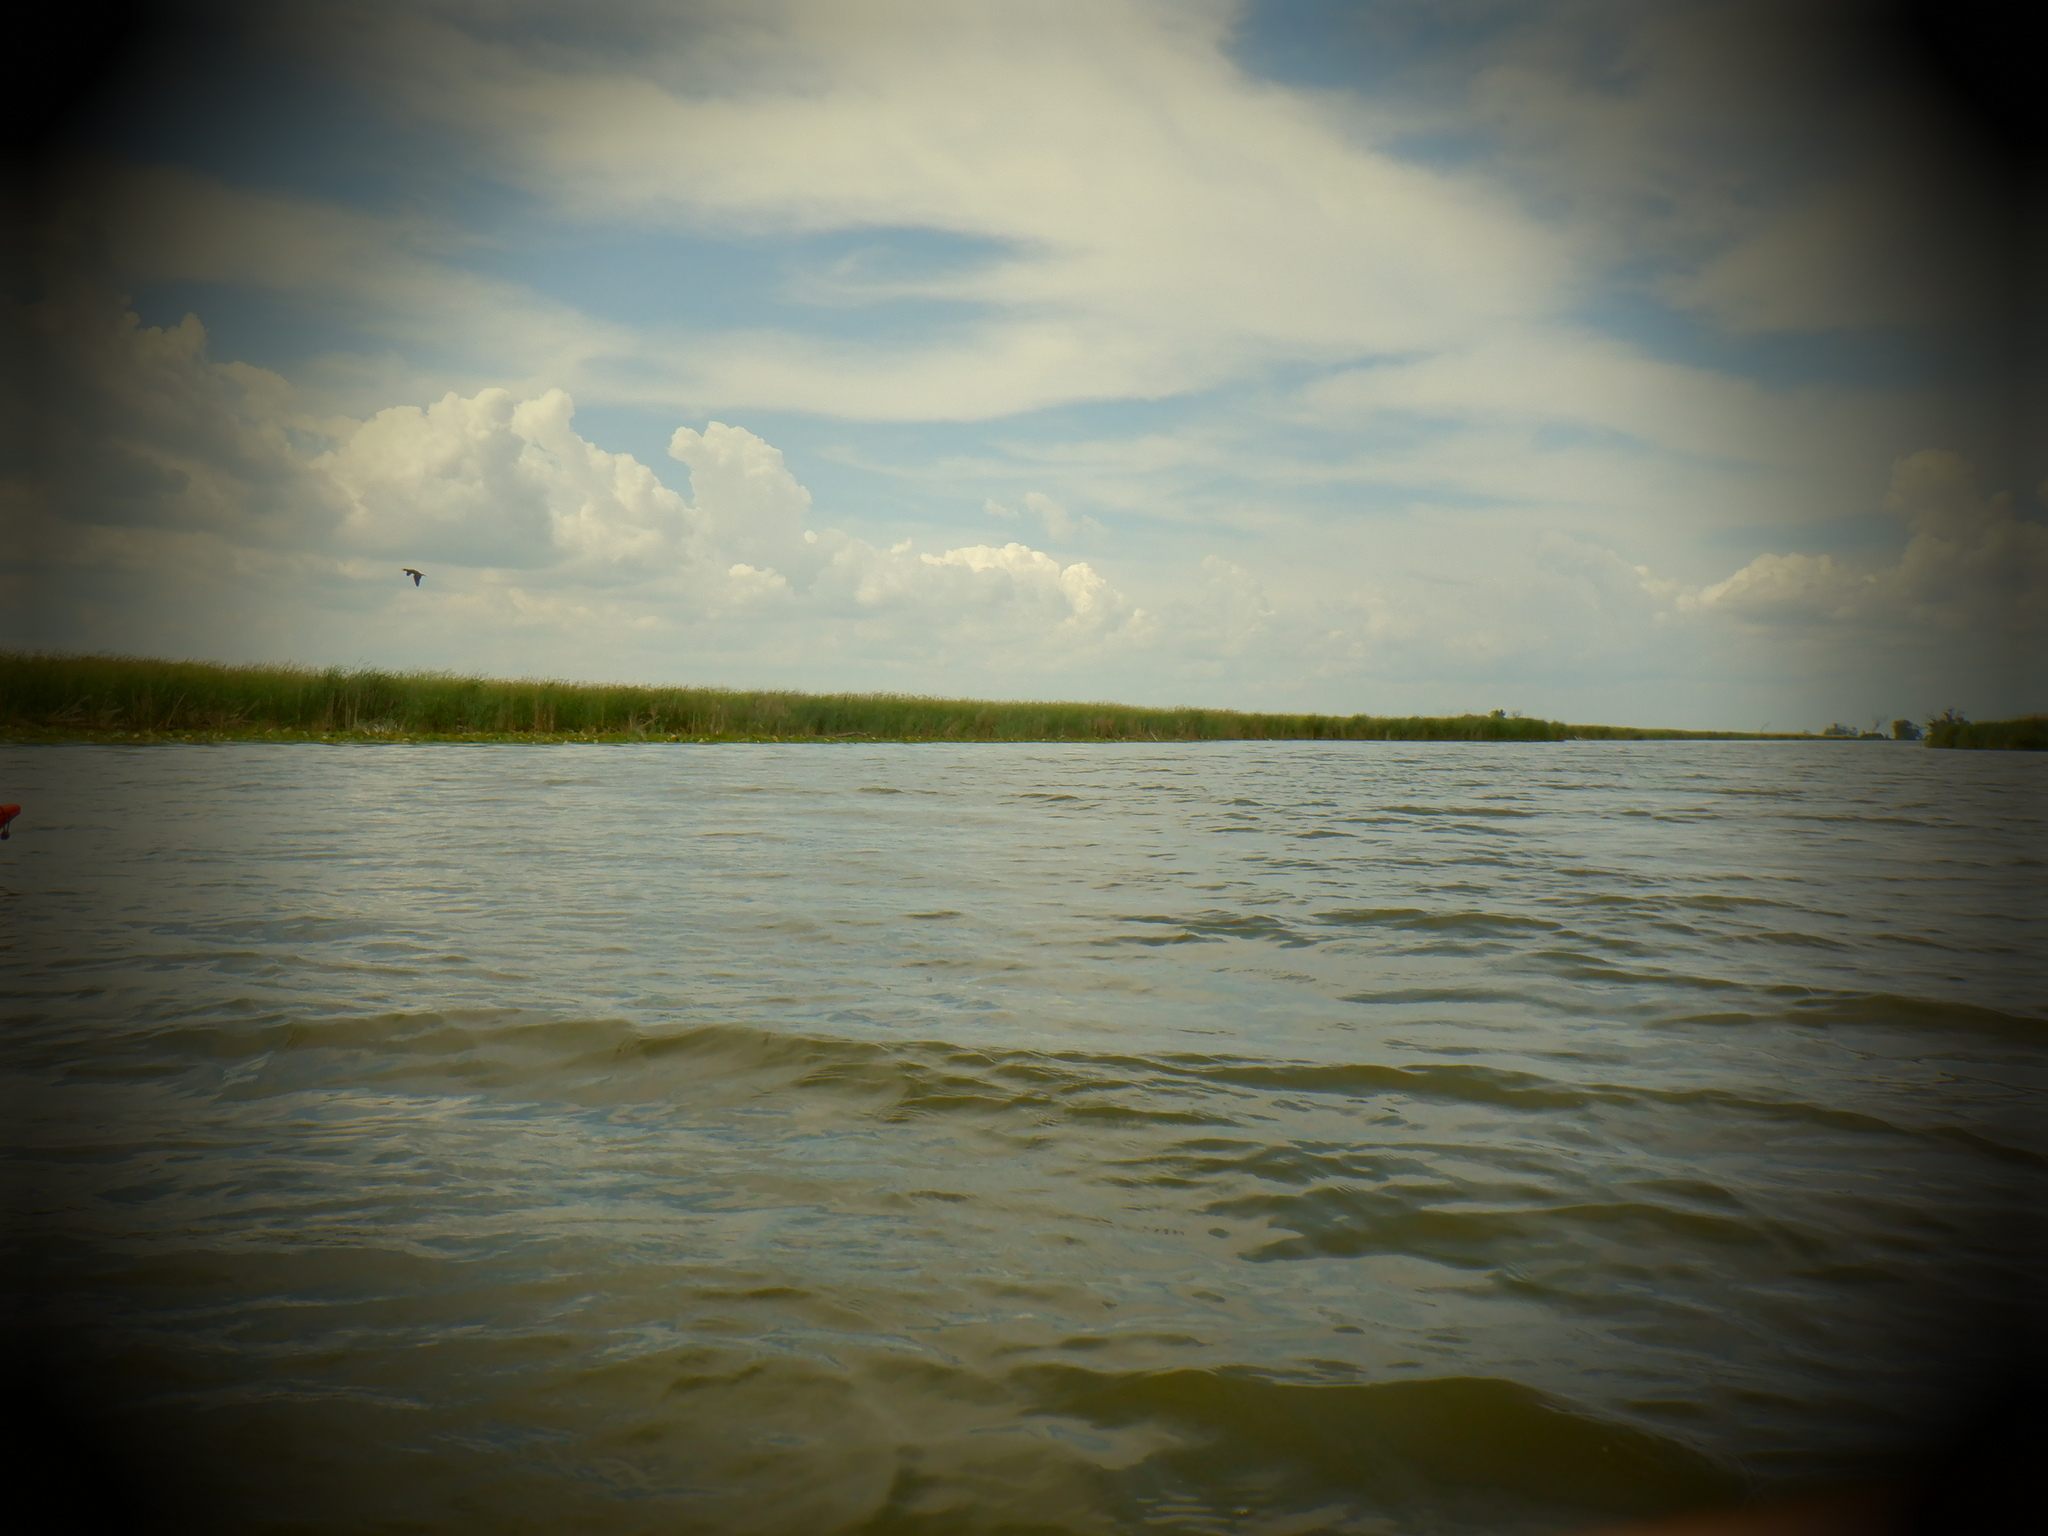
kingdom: Animalia
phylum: Chordata
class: Aves
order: Suliformes
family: Phalacrocoracidae
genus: Phalacrocorax
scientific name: Phalacrocorax auritus
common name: Double-crested cormorant
